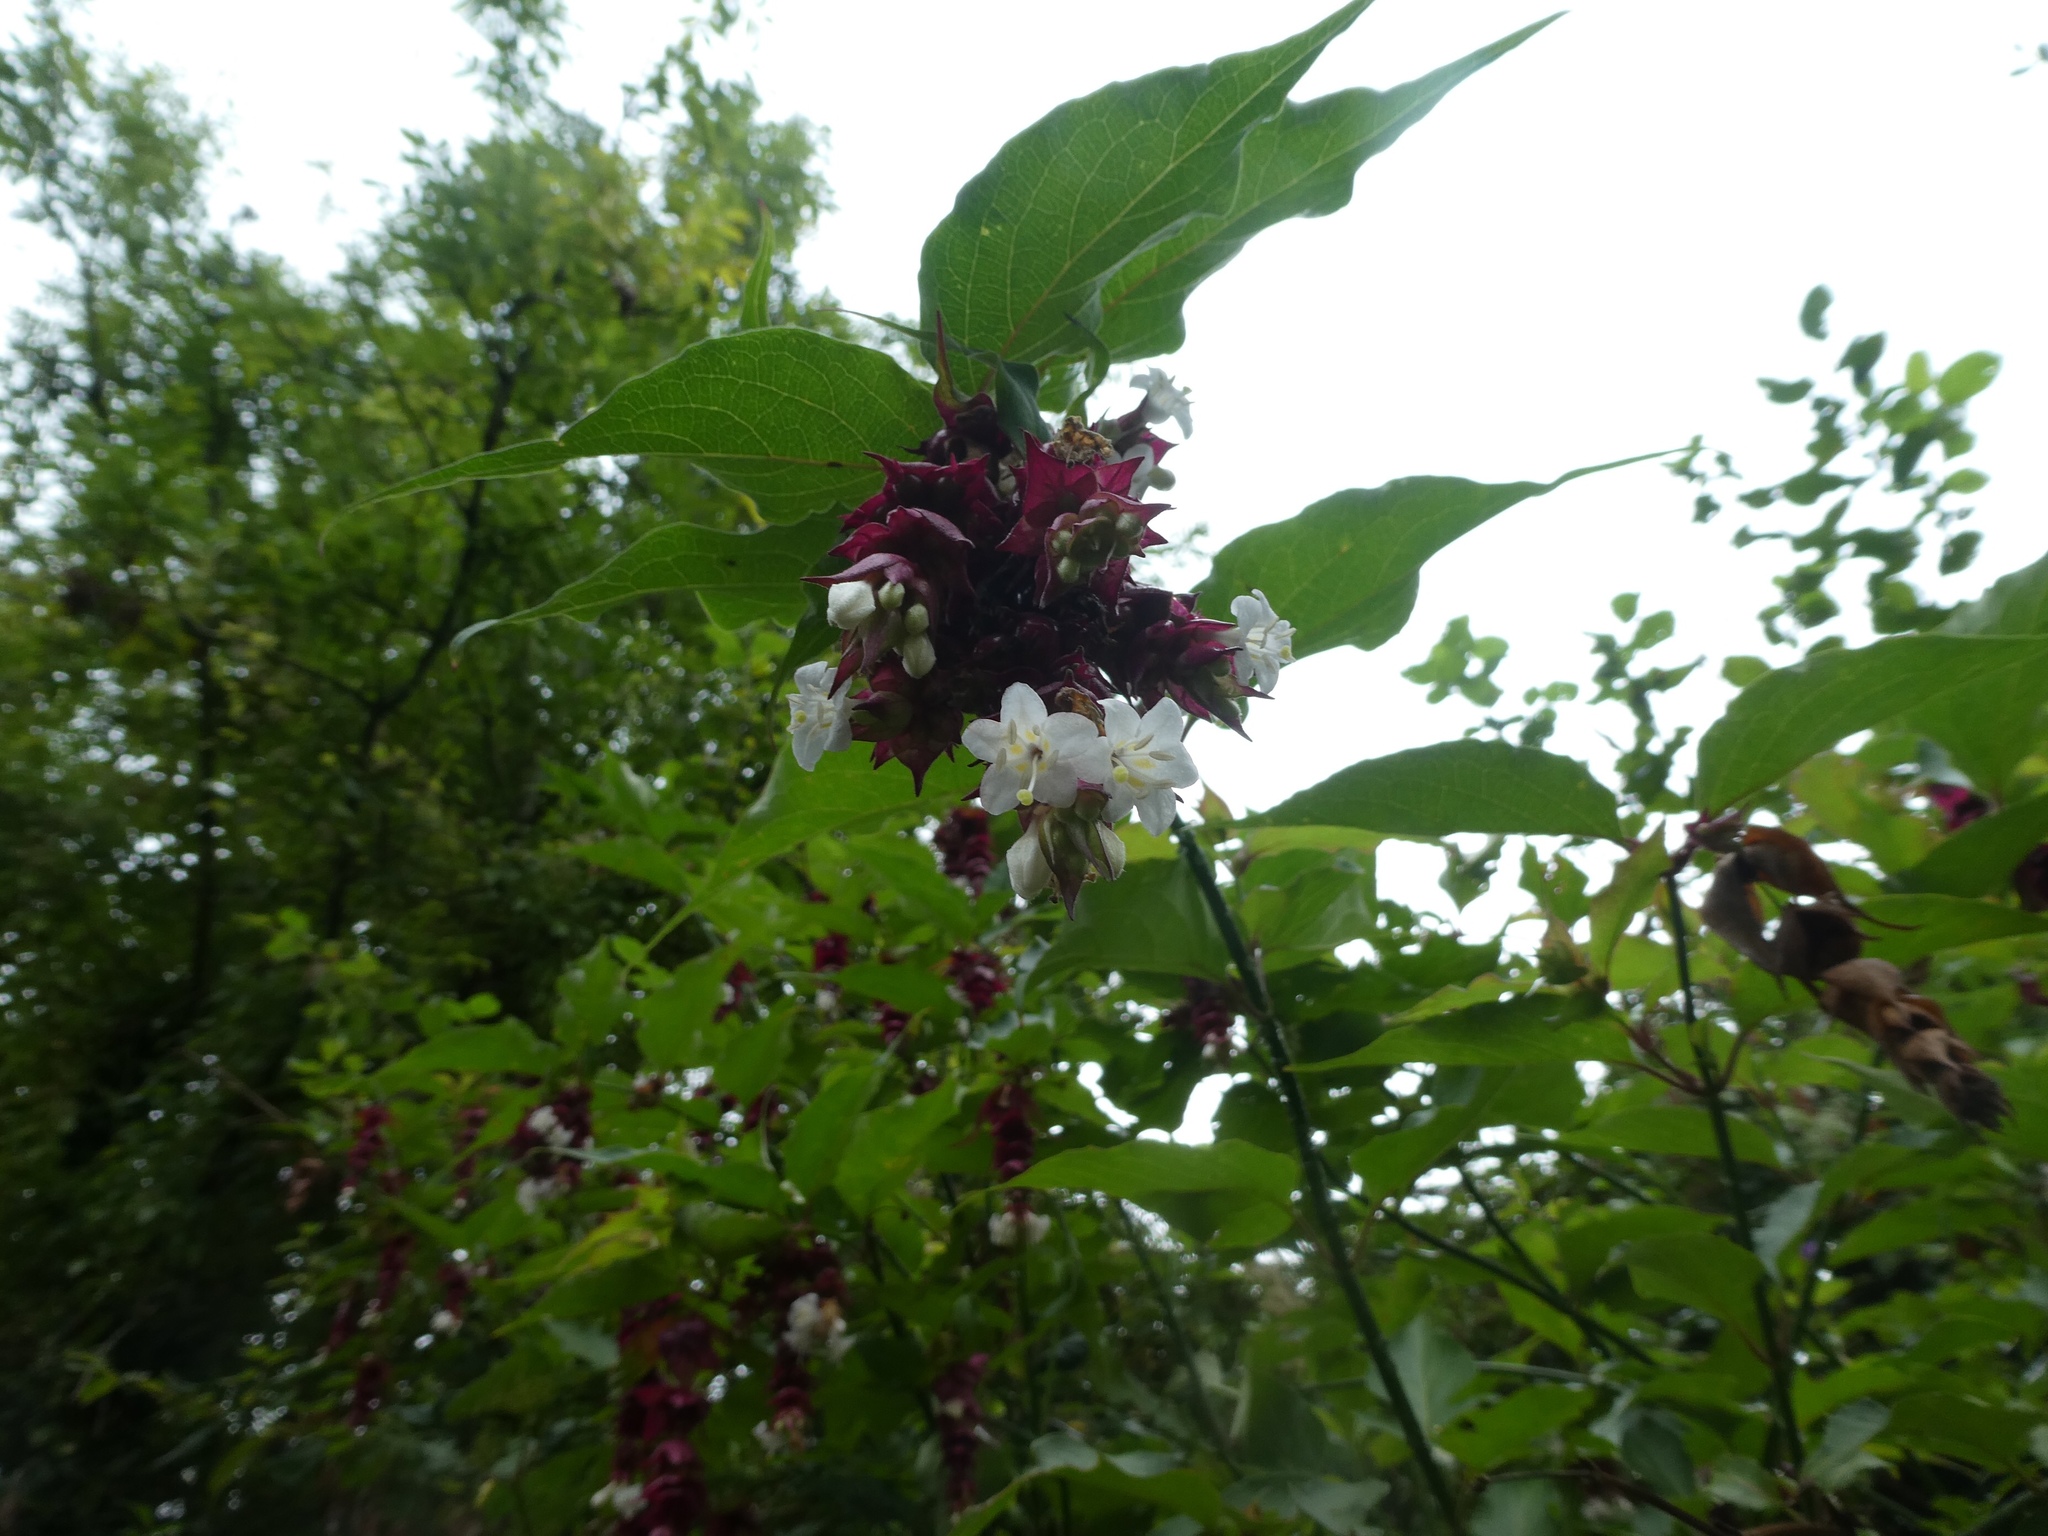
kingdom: Plantae
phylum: Tracheophyta
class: Magnoliopsida
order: Dipsacales
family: Caprifoliaceae
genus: Leycesteria
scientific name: Leycesteria formosa
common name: Himalayan honeysuckle
